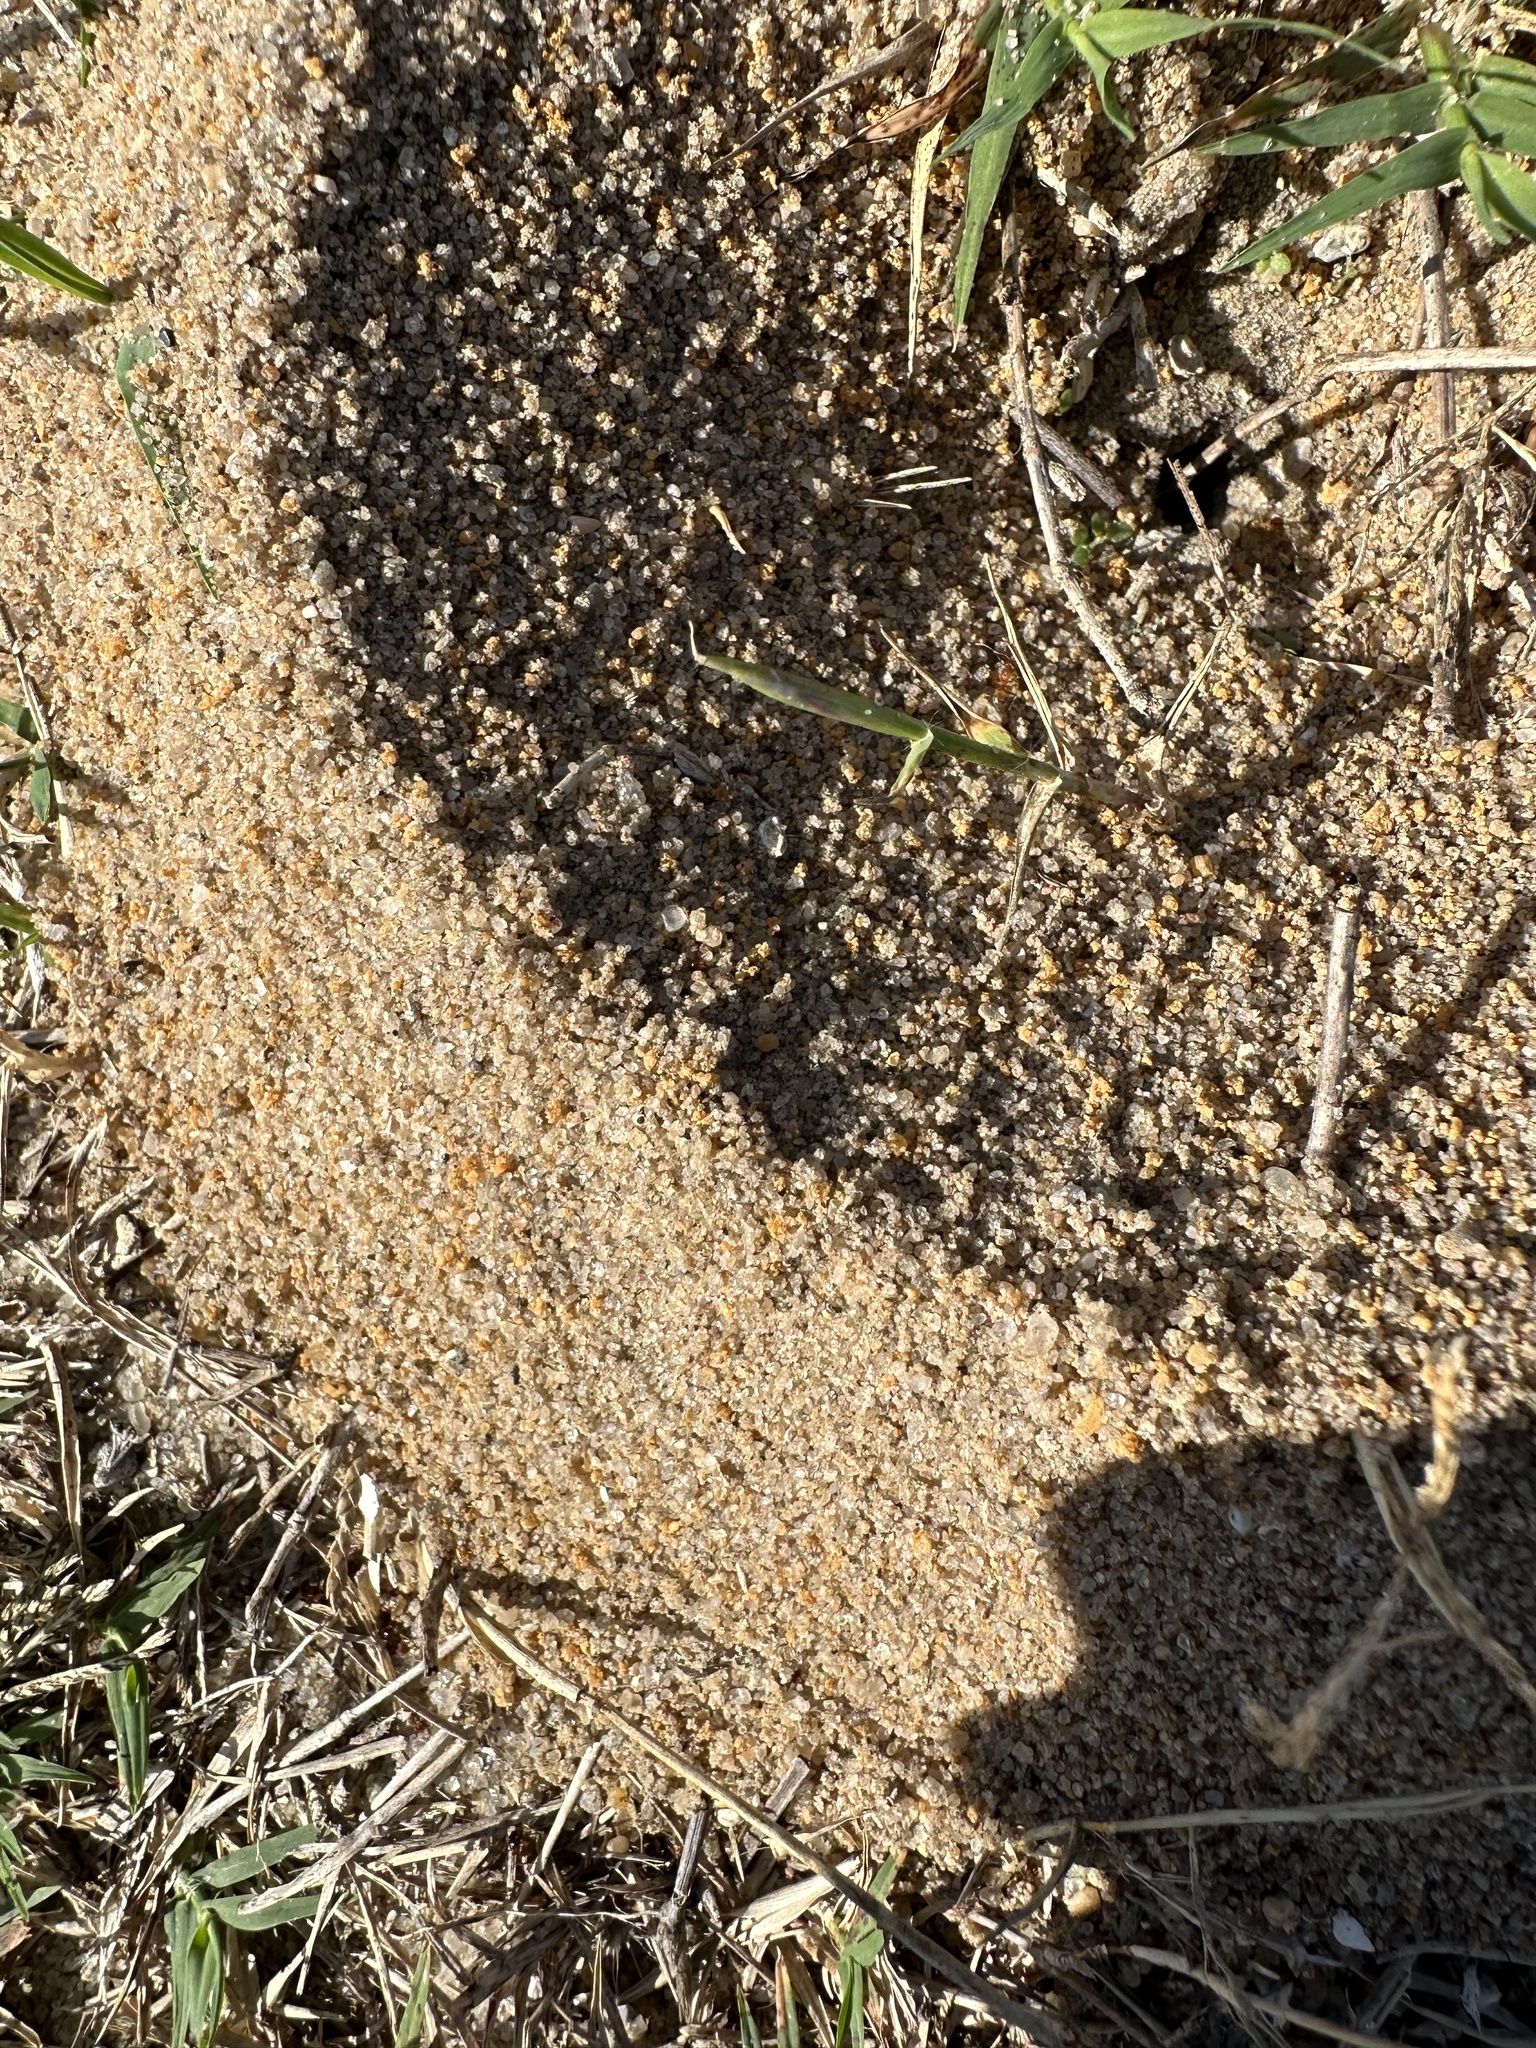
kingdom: Animalia
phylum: Arthropoda
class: Insecta
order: Hymenoptera
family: Formicidae
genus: Dorymyrmex
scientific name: Dorymyrmex bureni
